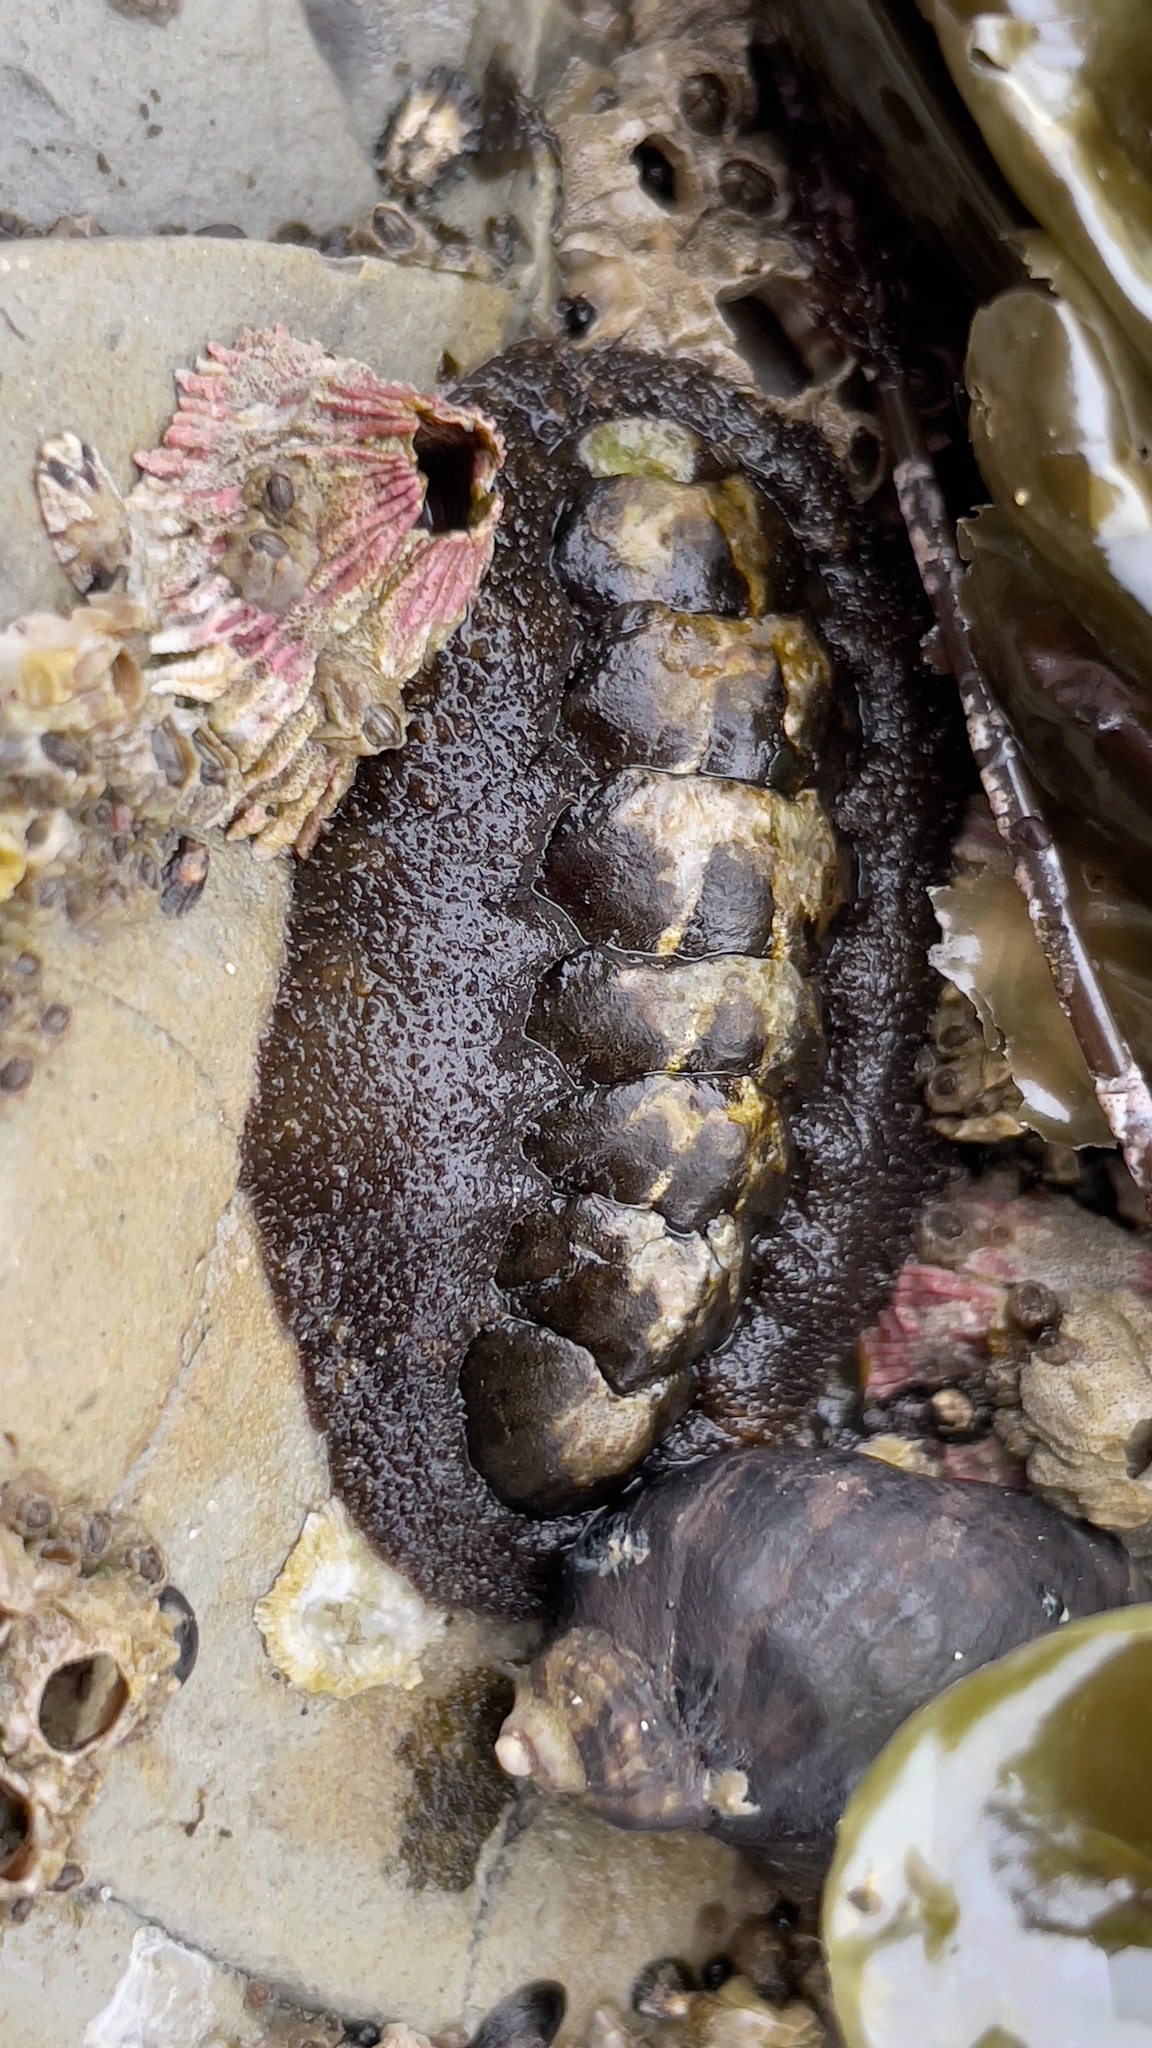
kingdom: Animalia
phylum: Mollusca
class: Polyplacophora
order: Chitonida
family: Tonicellidae
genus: Nuttallina
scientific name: Nuttallina californica
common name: California nuttall chiton
